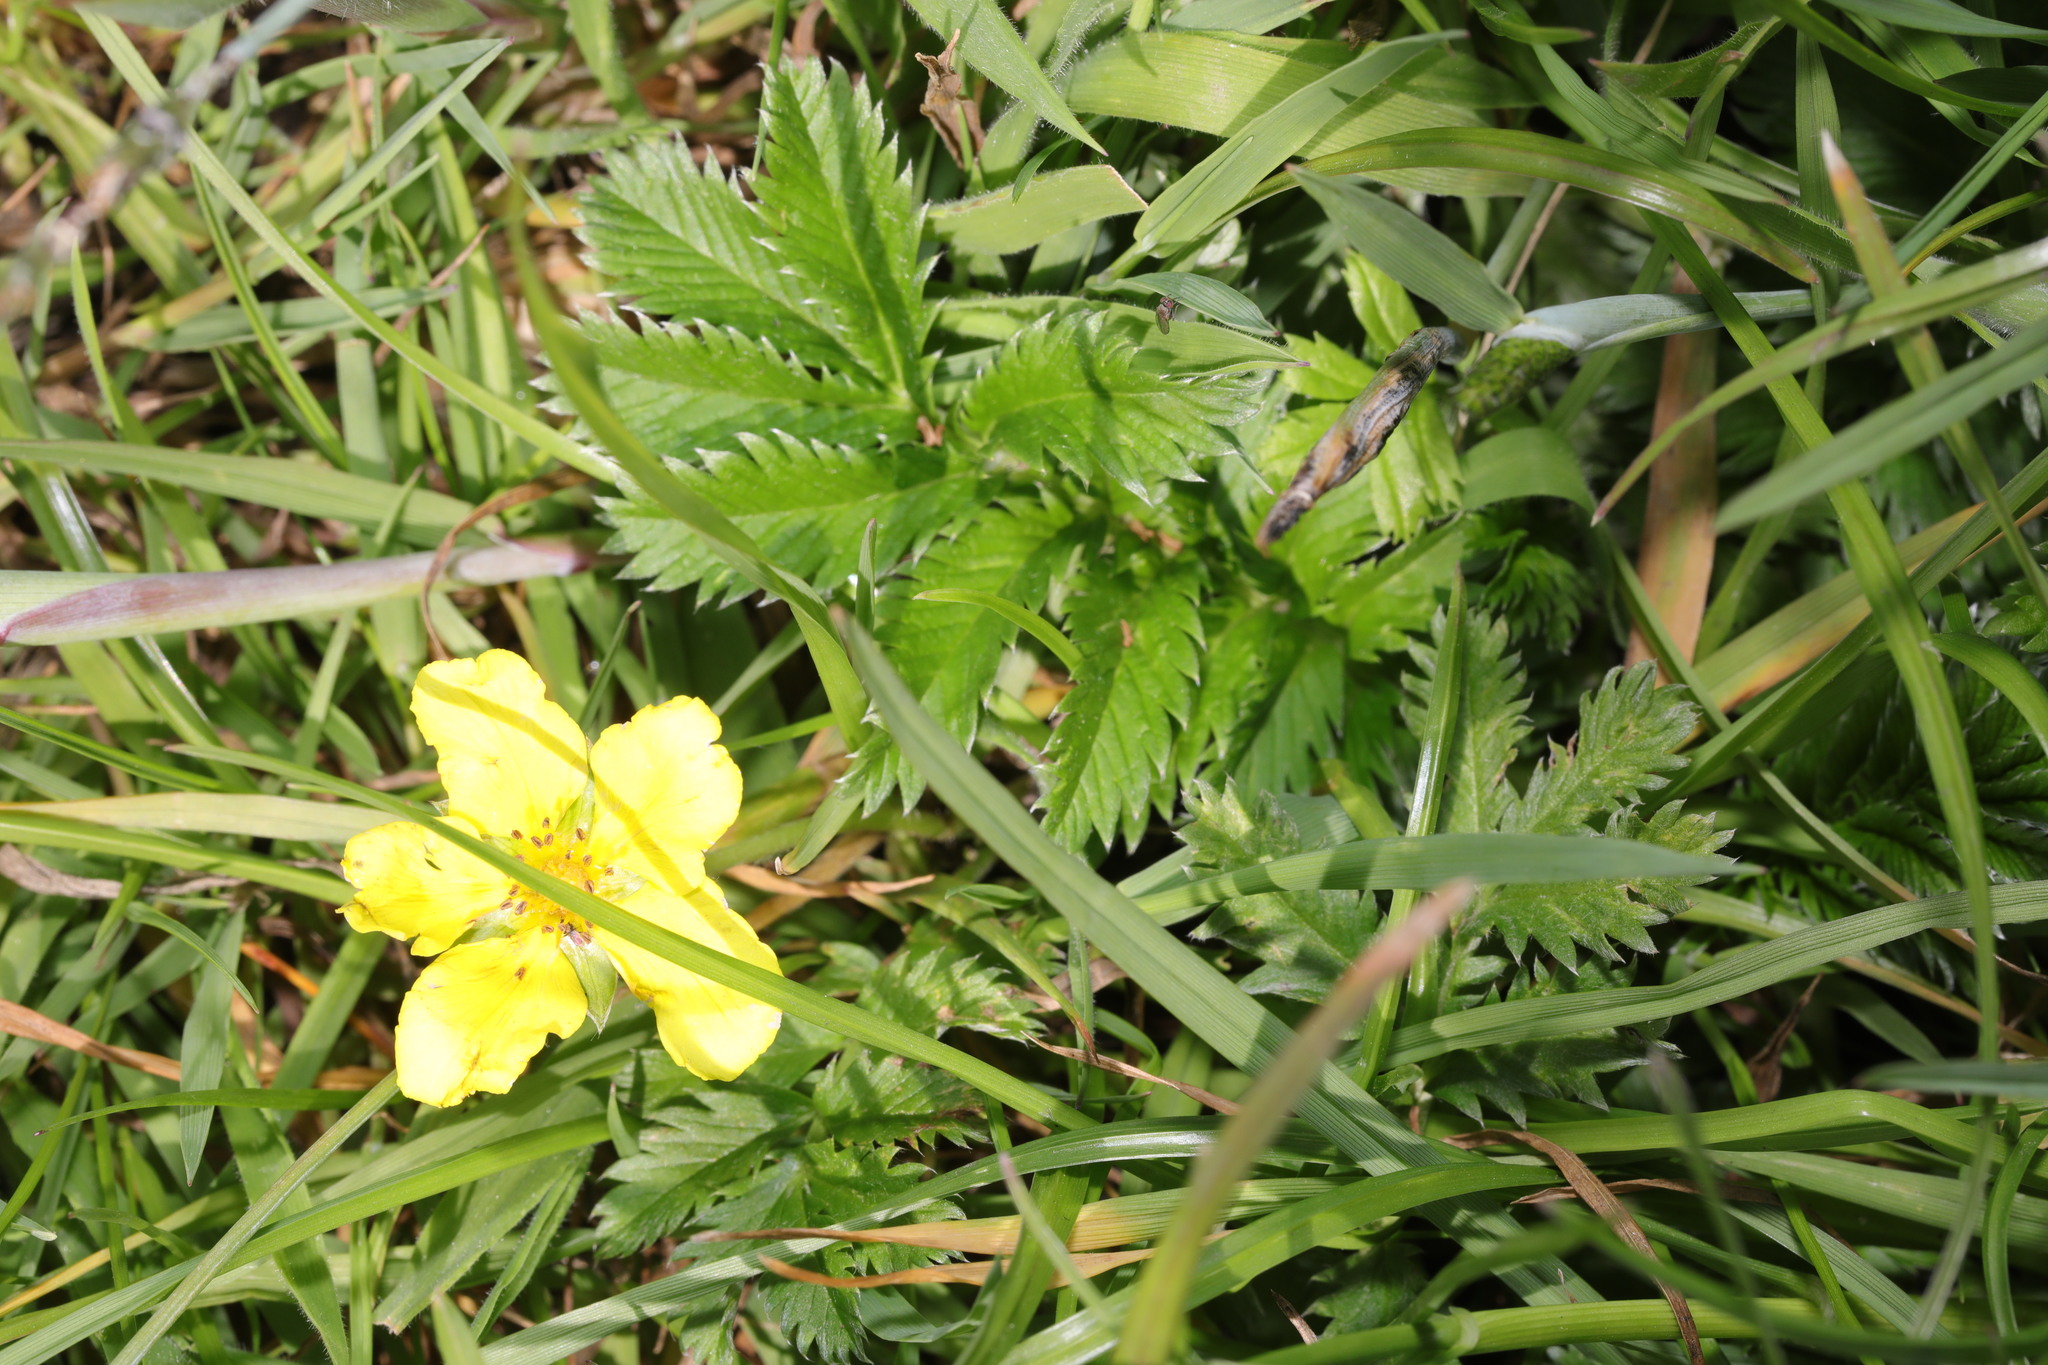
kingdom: Plantae
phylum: Tracheophyta
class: Magnoliopsida
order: Rosales
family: Rosaceae
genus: Argentina
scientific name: Argentina anserina
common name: Common silverweed
